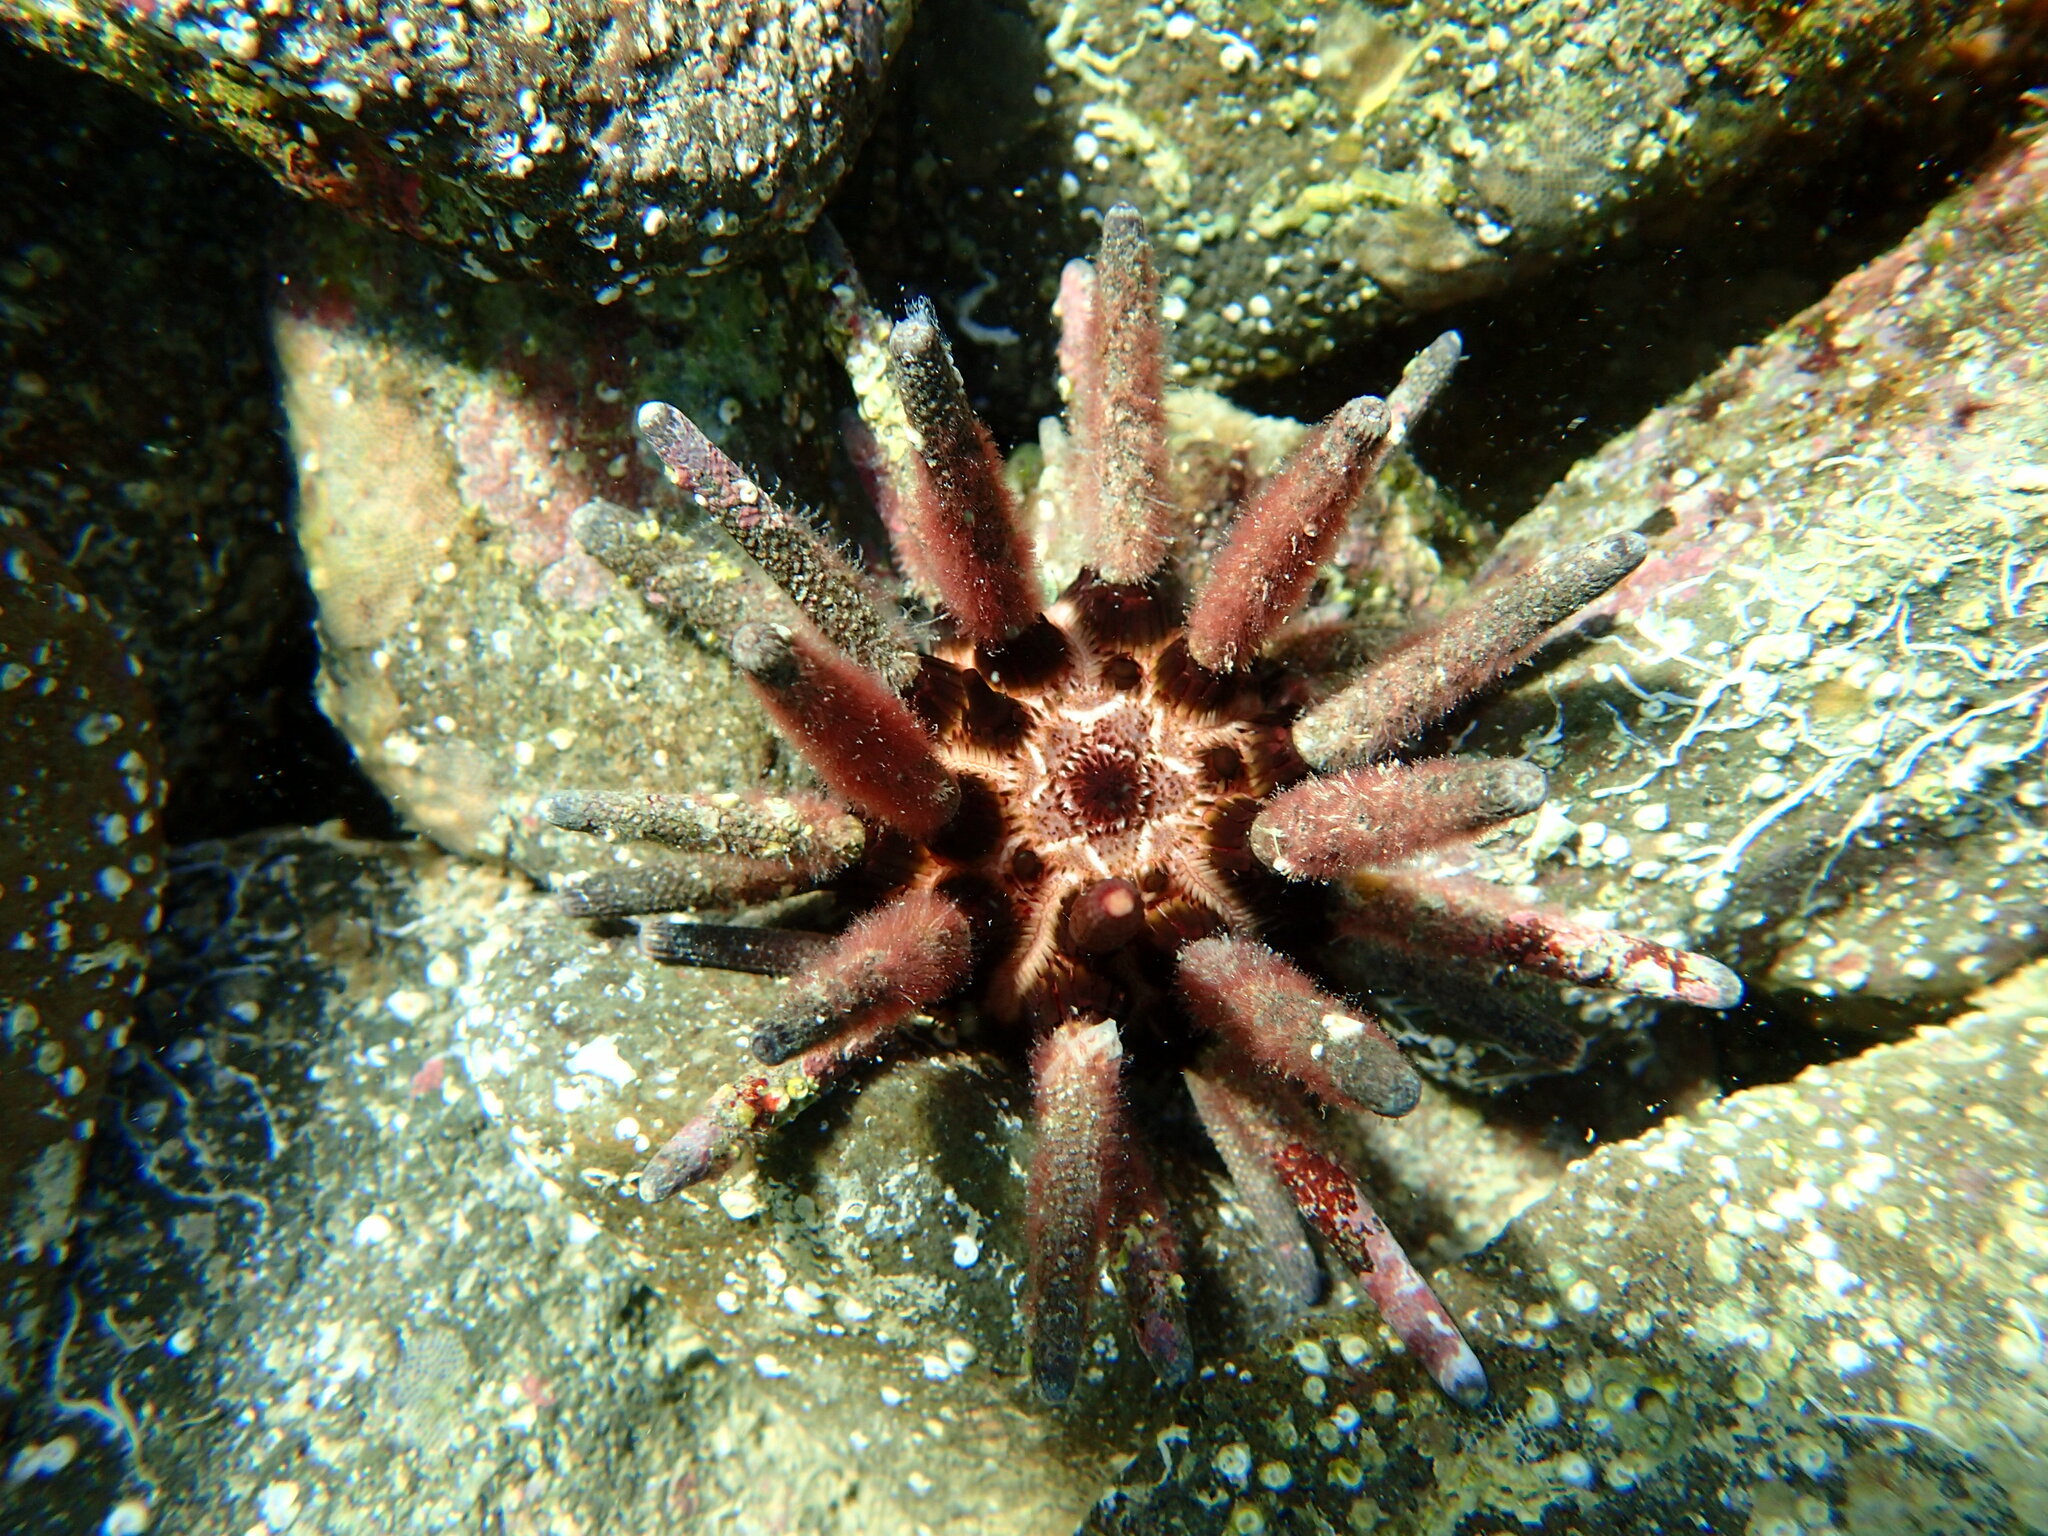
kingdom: Animalia
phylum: Echinodermata
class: Echinoidea
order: Cidaroida
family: Cidaridae
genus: Eucidaris
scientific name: Eucidaris thouarsii
